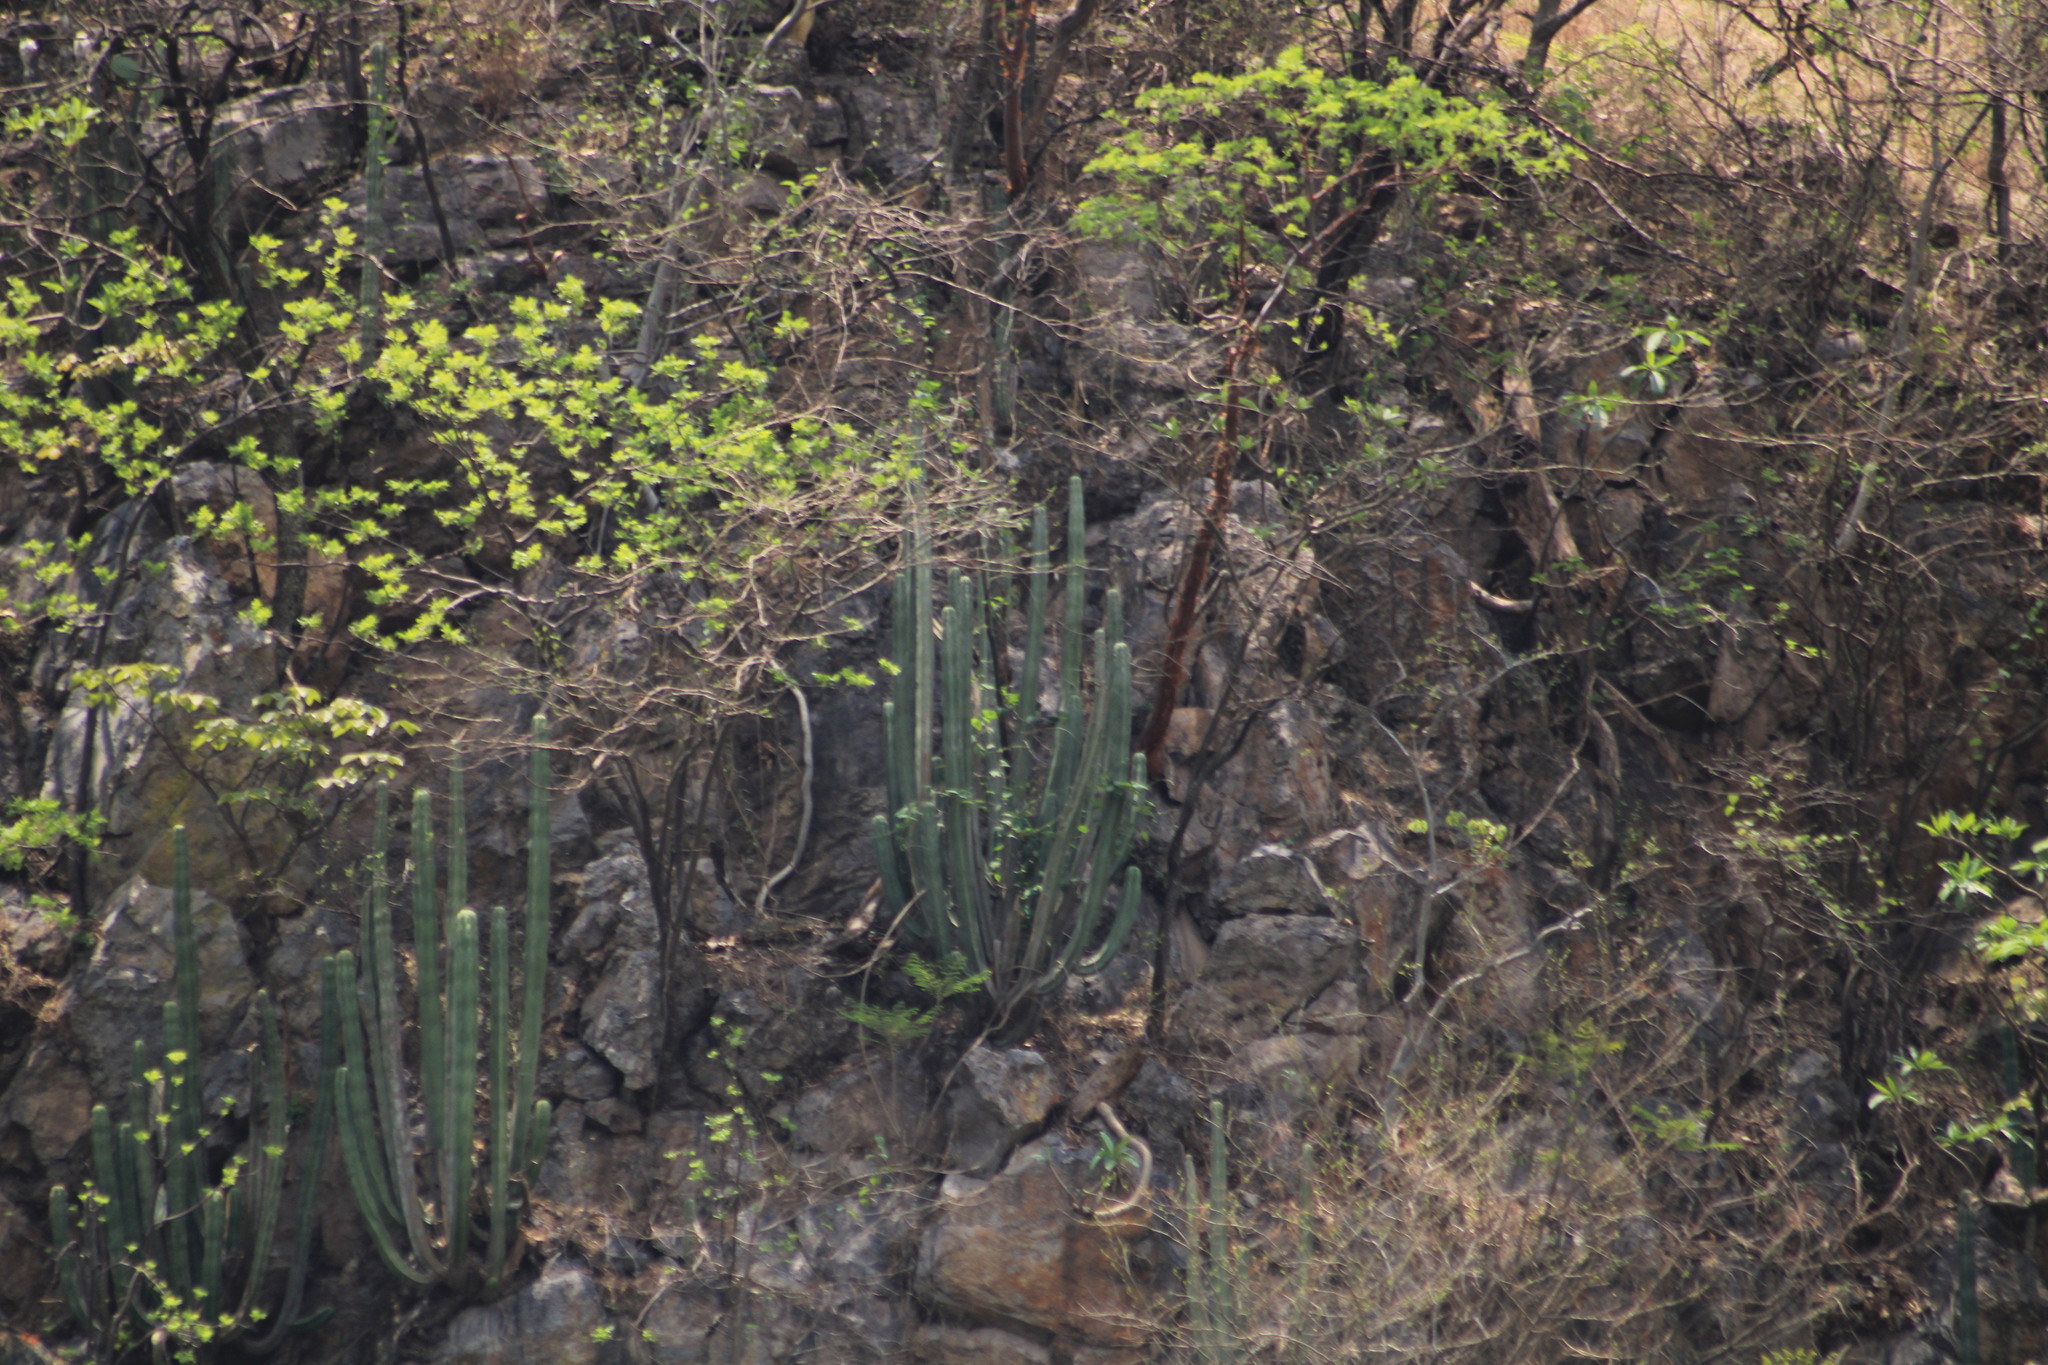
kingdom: Plantae
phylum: Tracheophyta
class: Magnoliopsida
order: Caryophyllales
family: Cactaceae
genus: Stenocereus
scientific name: Stenocereus queretaroensis
